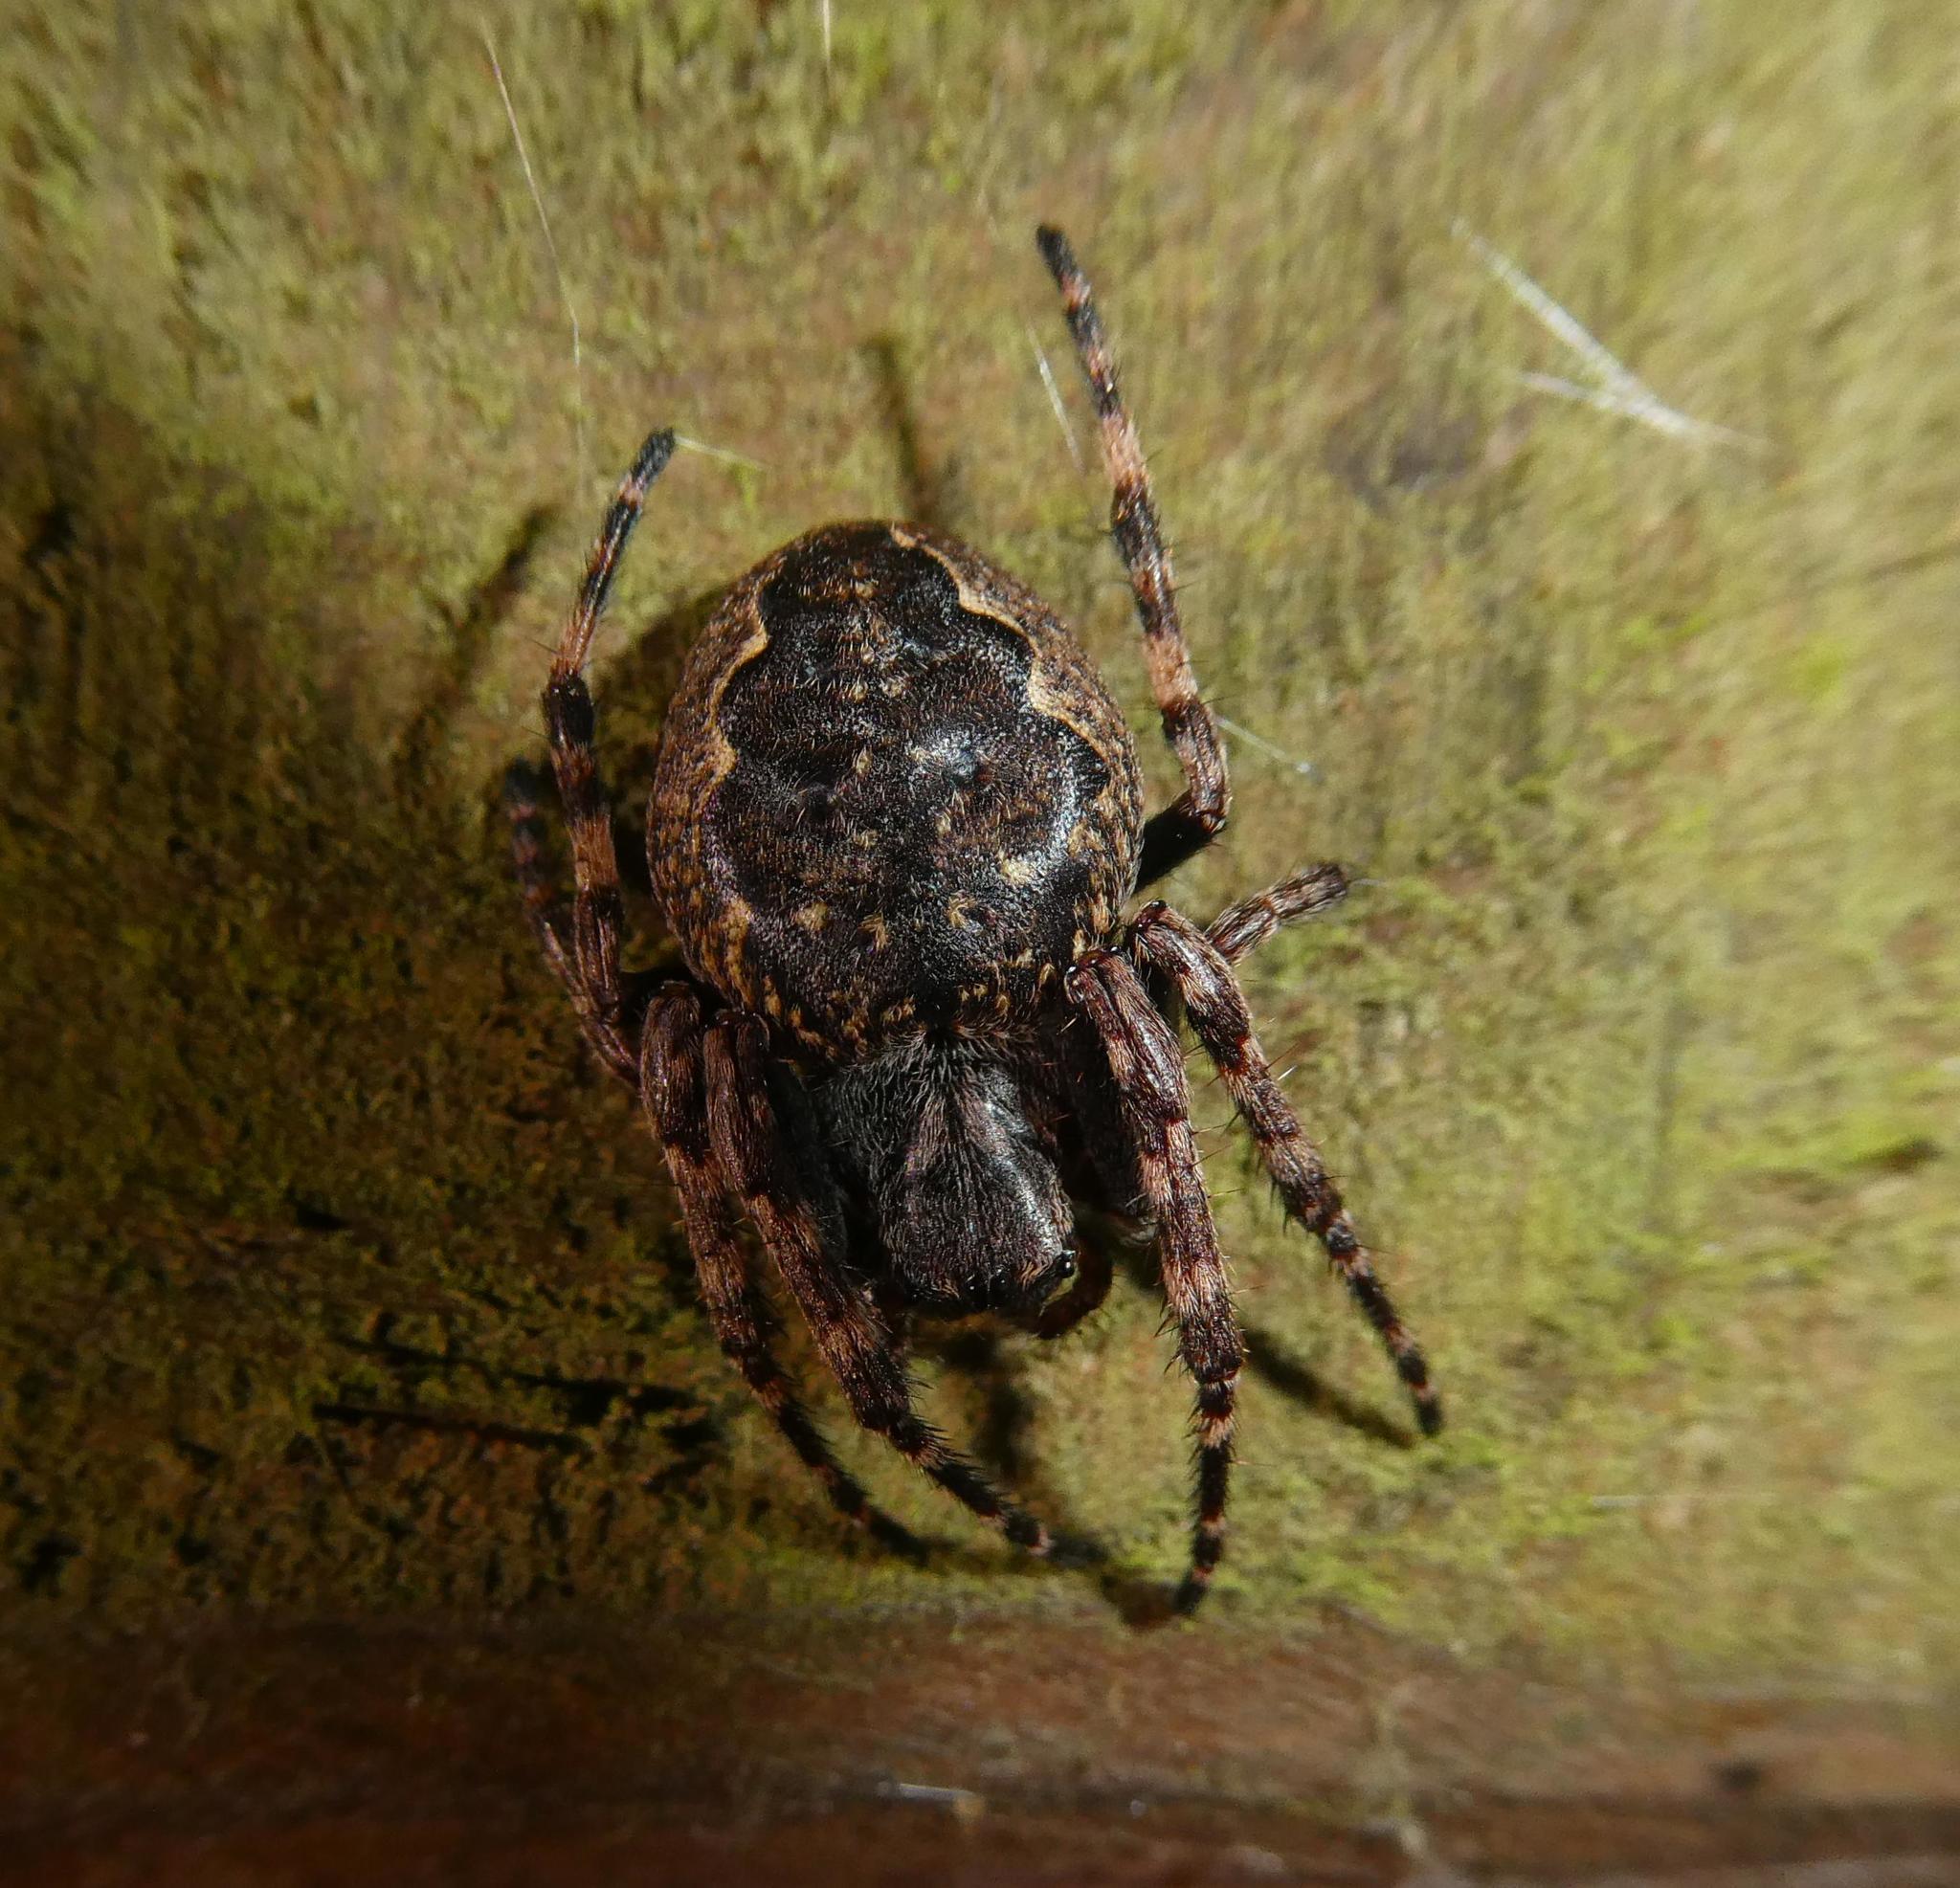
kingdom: Animalia
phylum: Arthropoda
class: Arachnida
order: Araneae
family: Araneidae
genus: Nuctenea
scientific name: Nuctenea umbratica
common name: Toad spider
